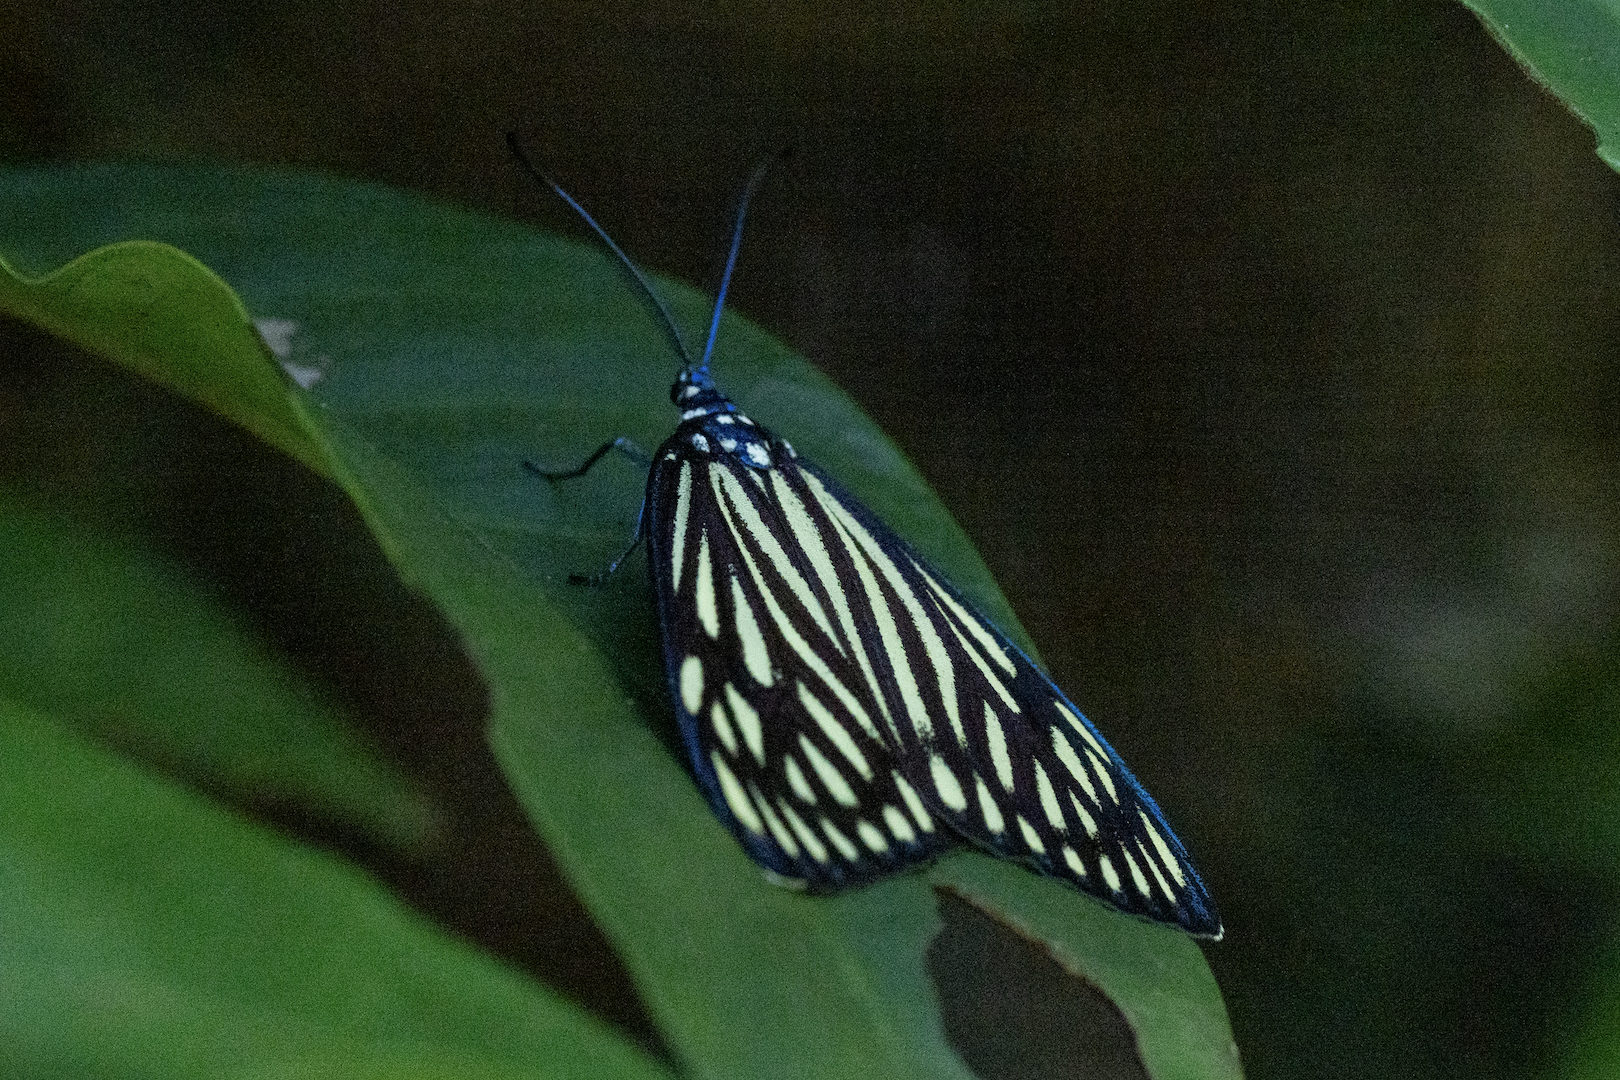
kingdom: Animalia
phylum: Arthropoda
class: Insecta
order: Lepidoptera
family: Zygaenidae
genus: Cyclosia
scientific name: Cyclosia papilionaris
